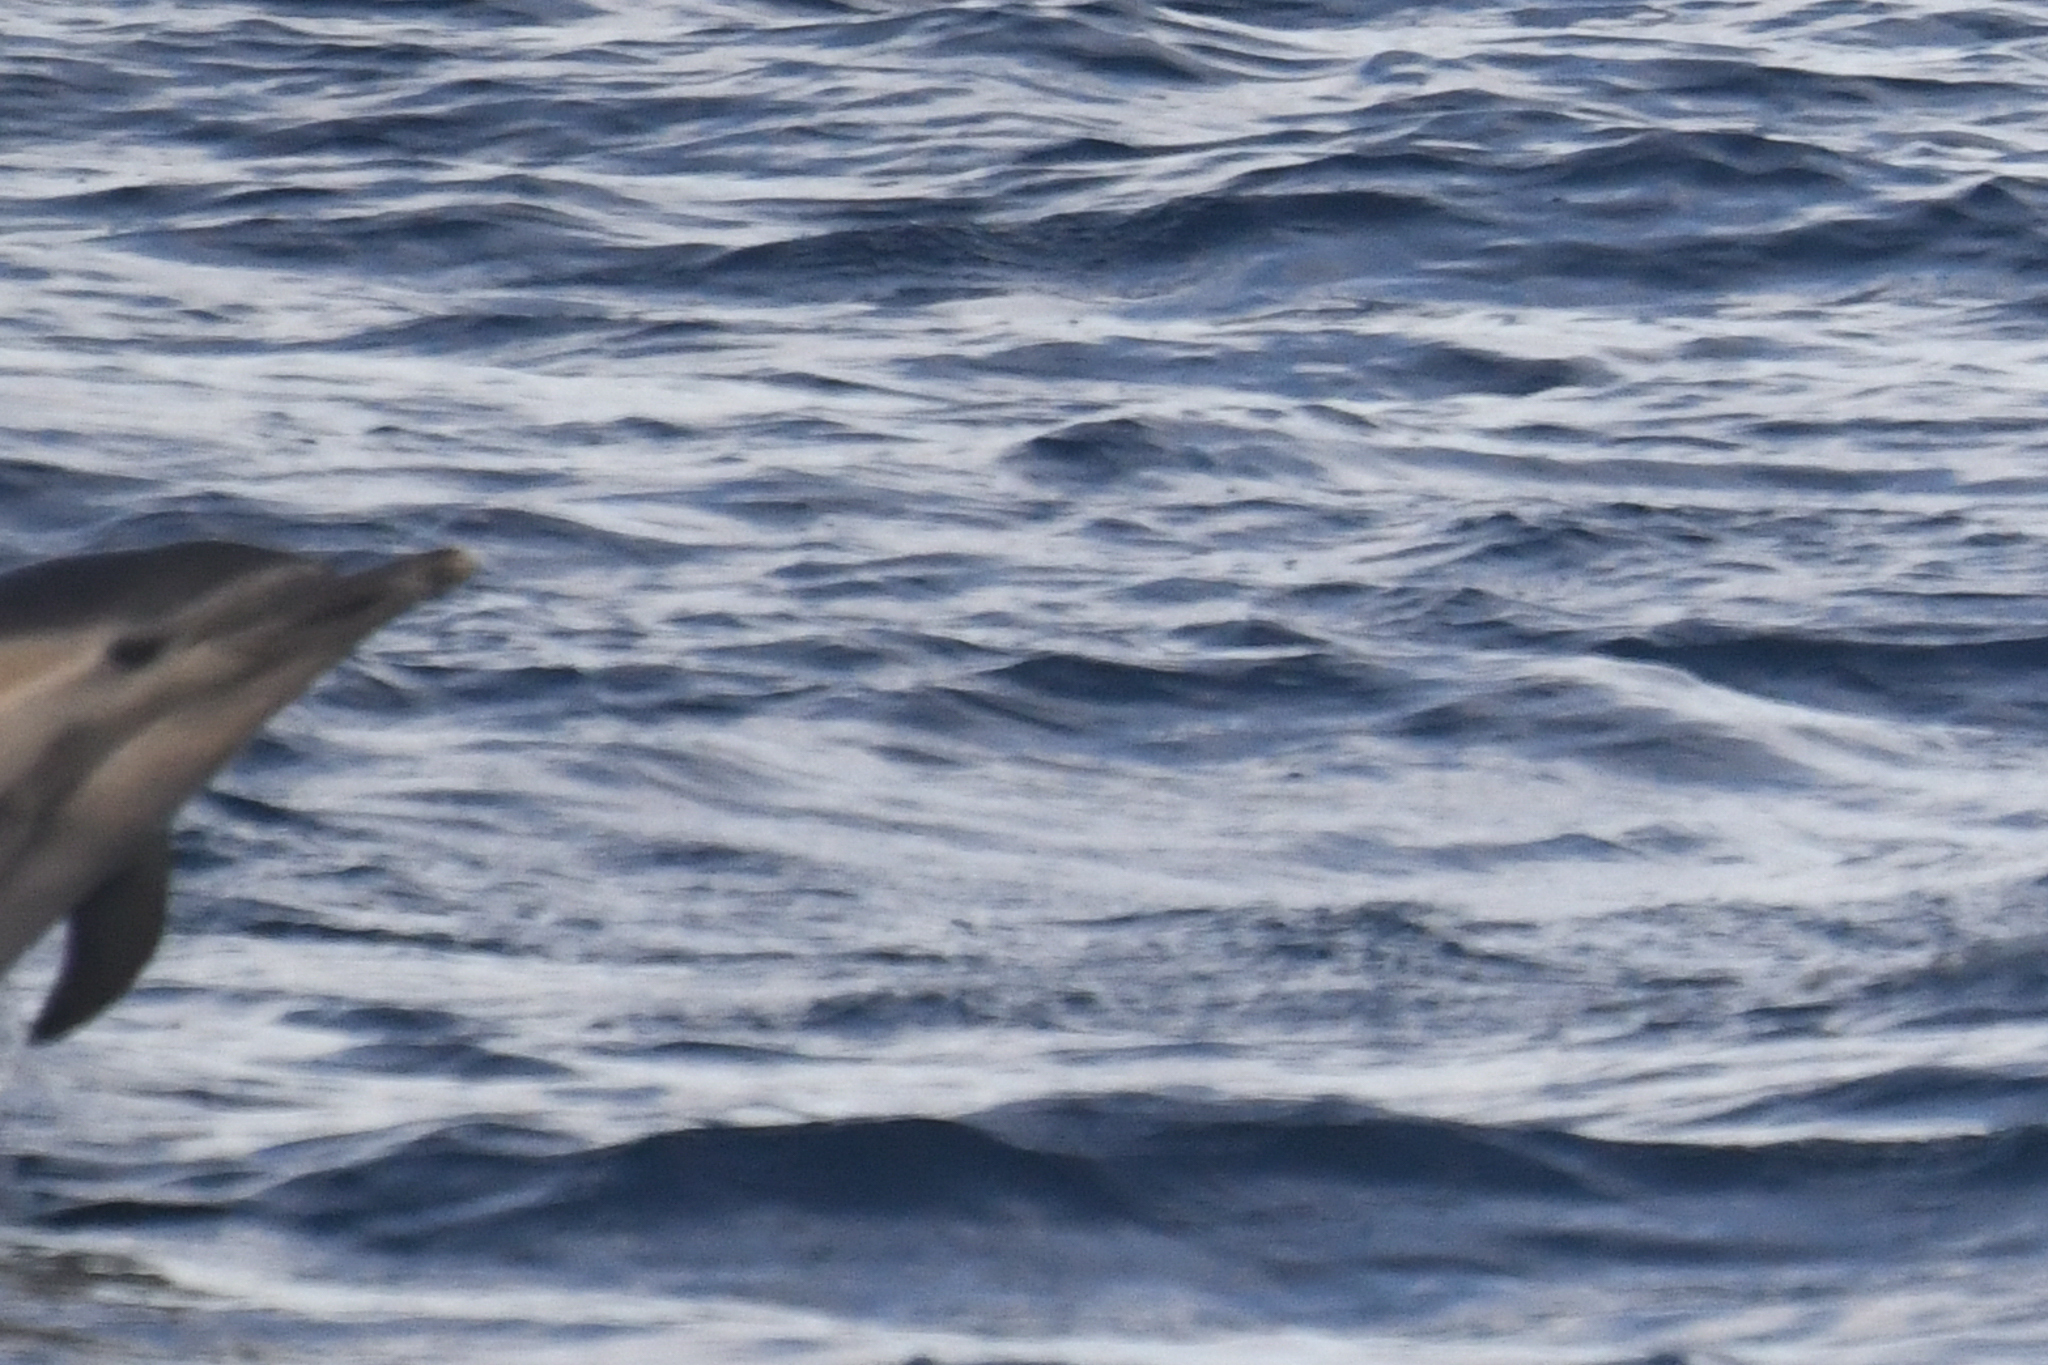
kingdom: Animalia
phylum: Chordata
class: Mammalia
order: Cetacea
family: Delphinidae
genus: Delphinus
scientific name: Delphinus delphis
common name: Common dolphin
